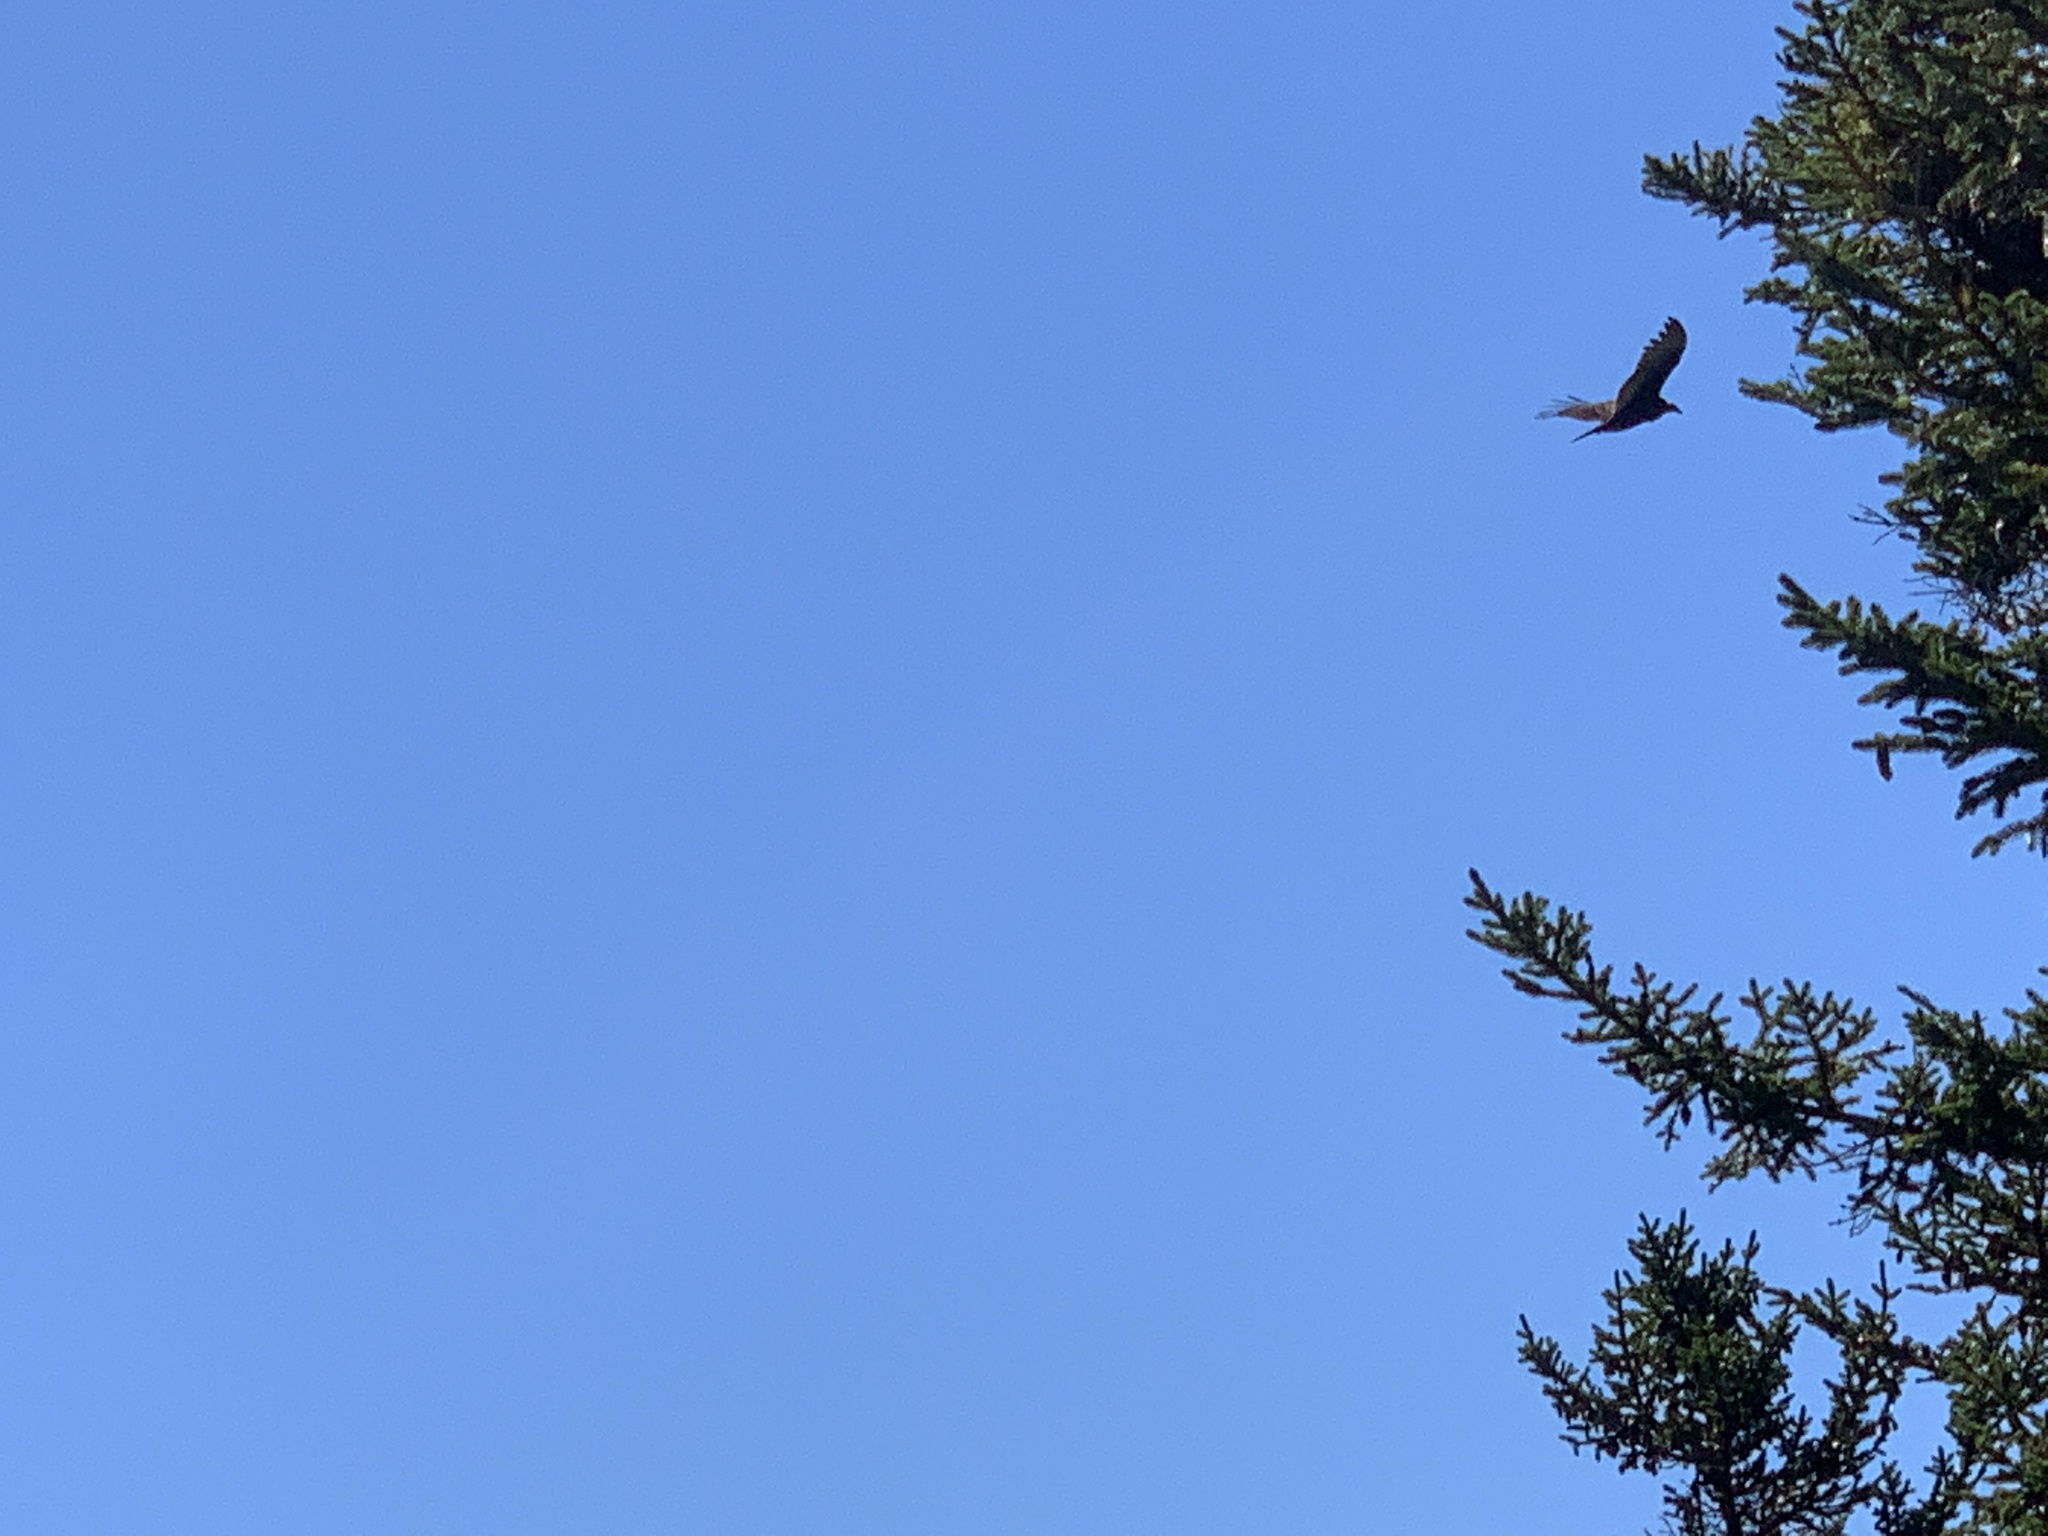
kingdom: Animalia
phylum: Chordata
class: Aves
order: Accipitriformes
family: Cathartidae
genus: Cathartes
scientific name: Cathartes aura
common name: Turkey vulture
